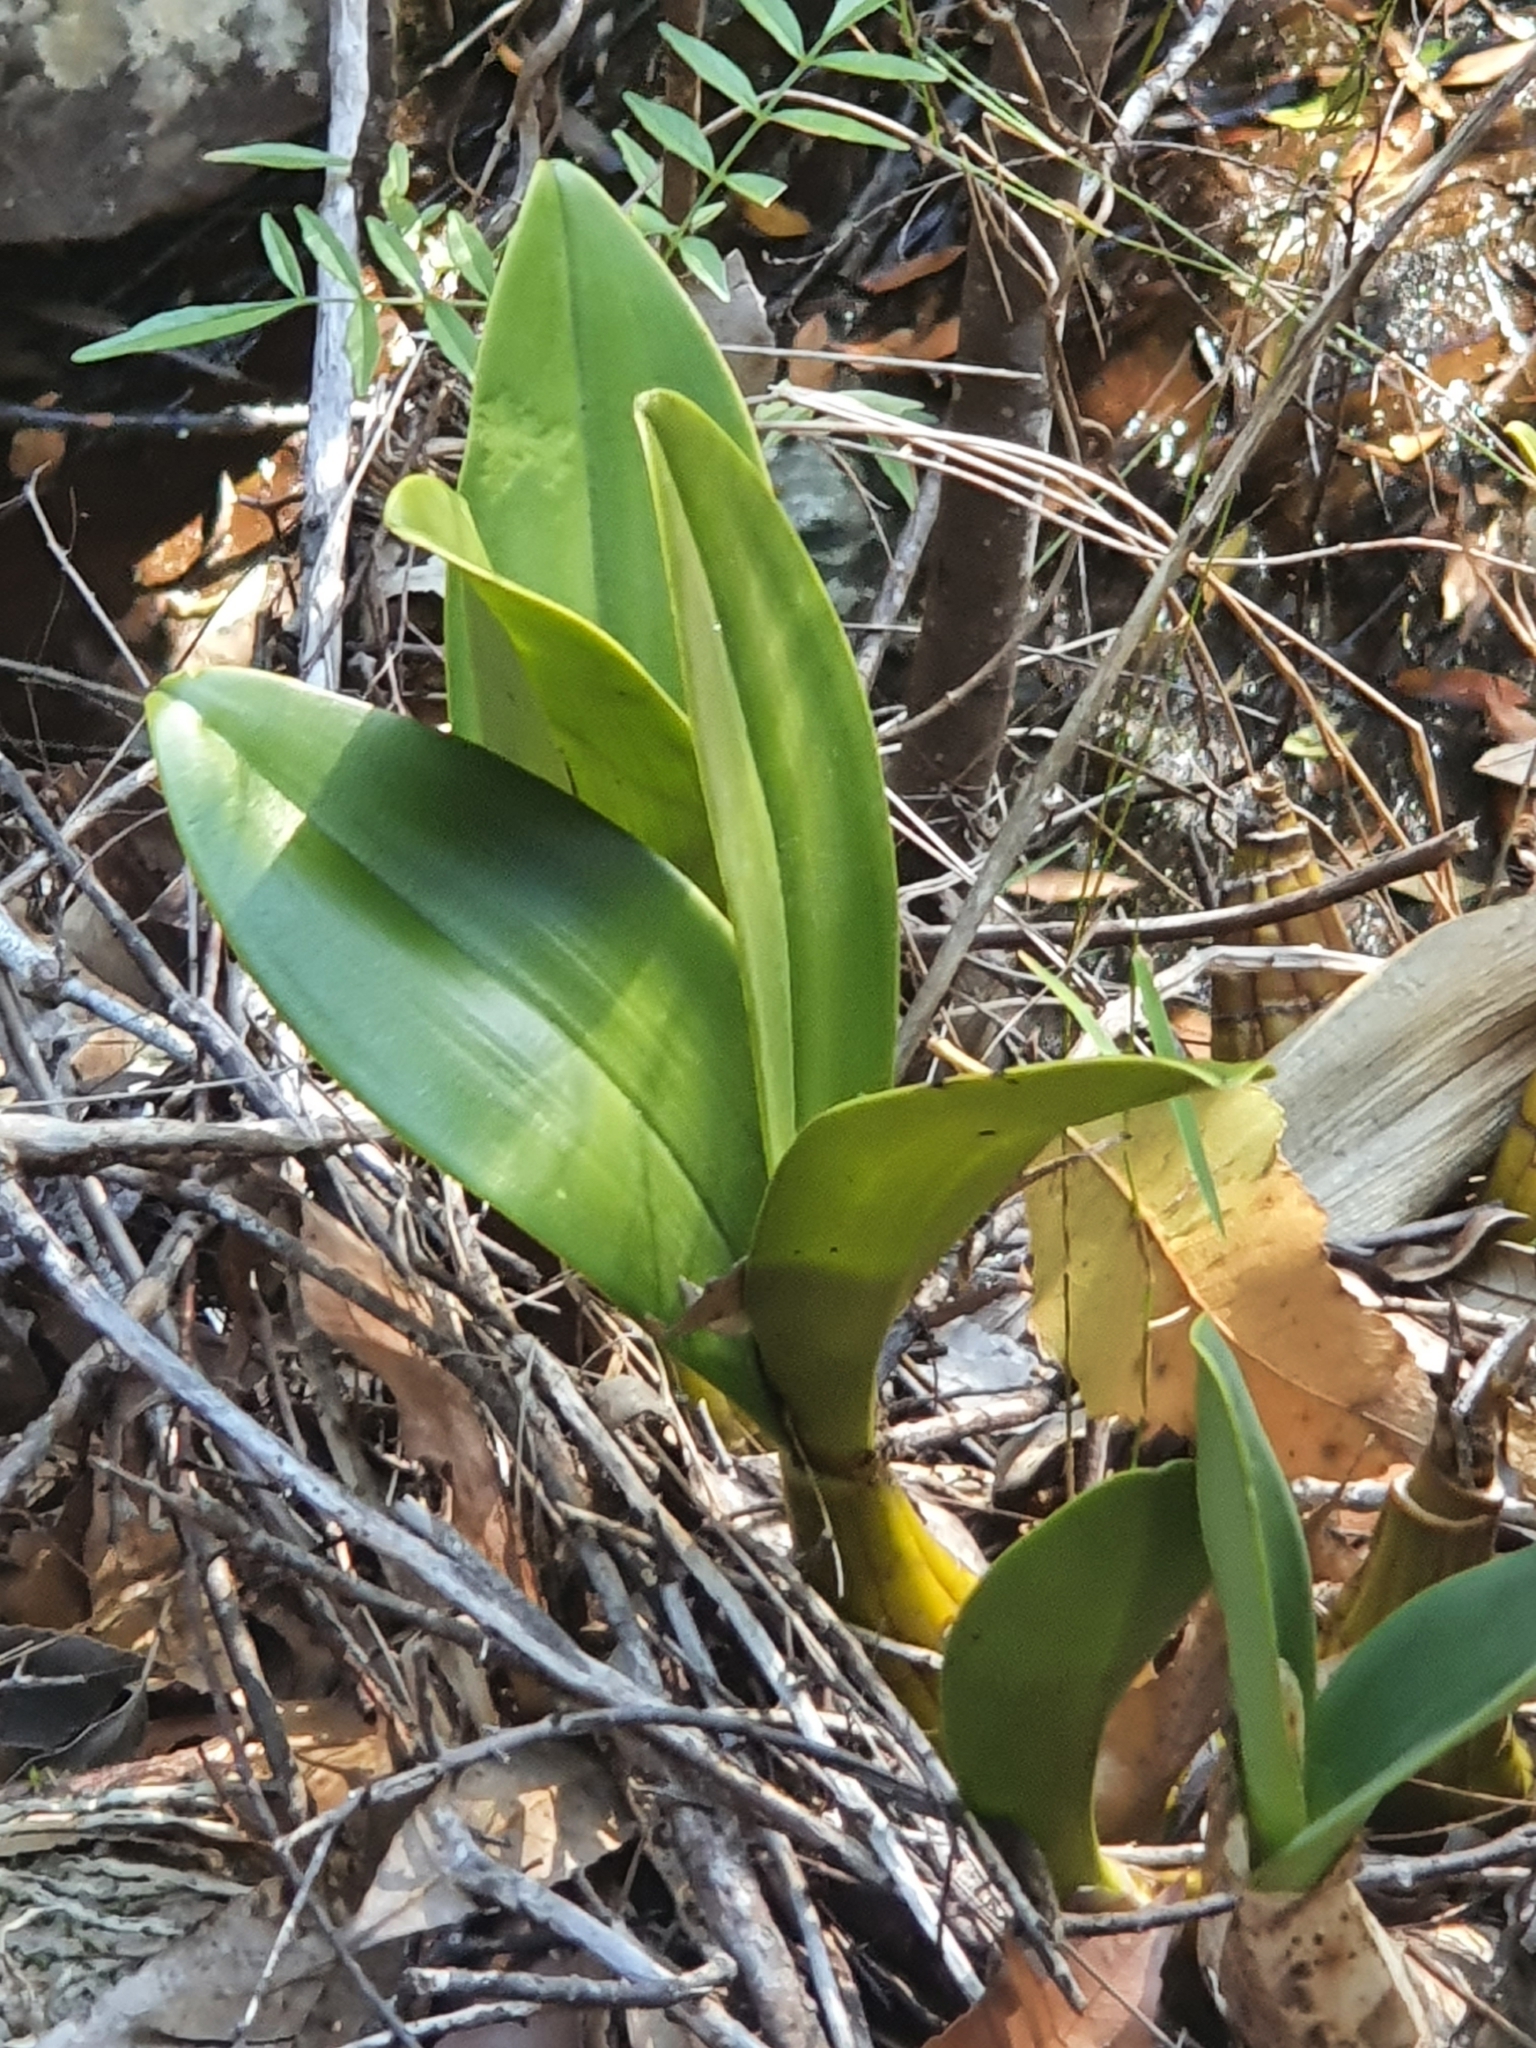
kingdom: Plantae
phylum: Tracheophyta
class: Liliopsida
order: Asparagales
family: Orchidaceae
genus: Dendrobium
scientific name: Dendrobium speciosum
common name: Rock-lily
